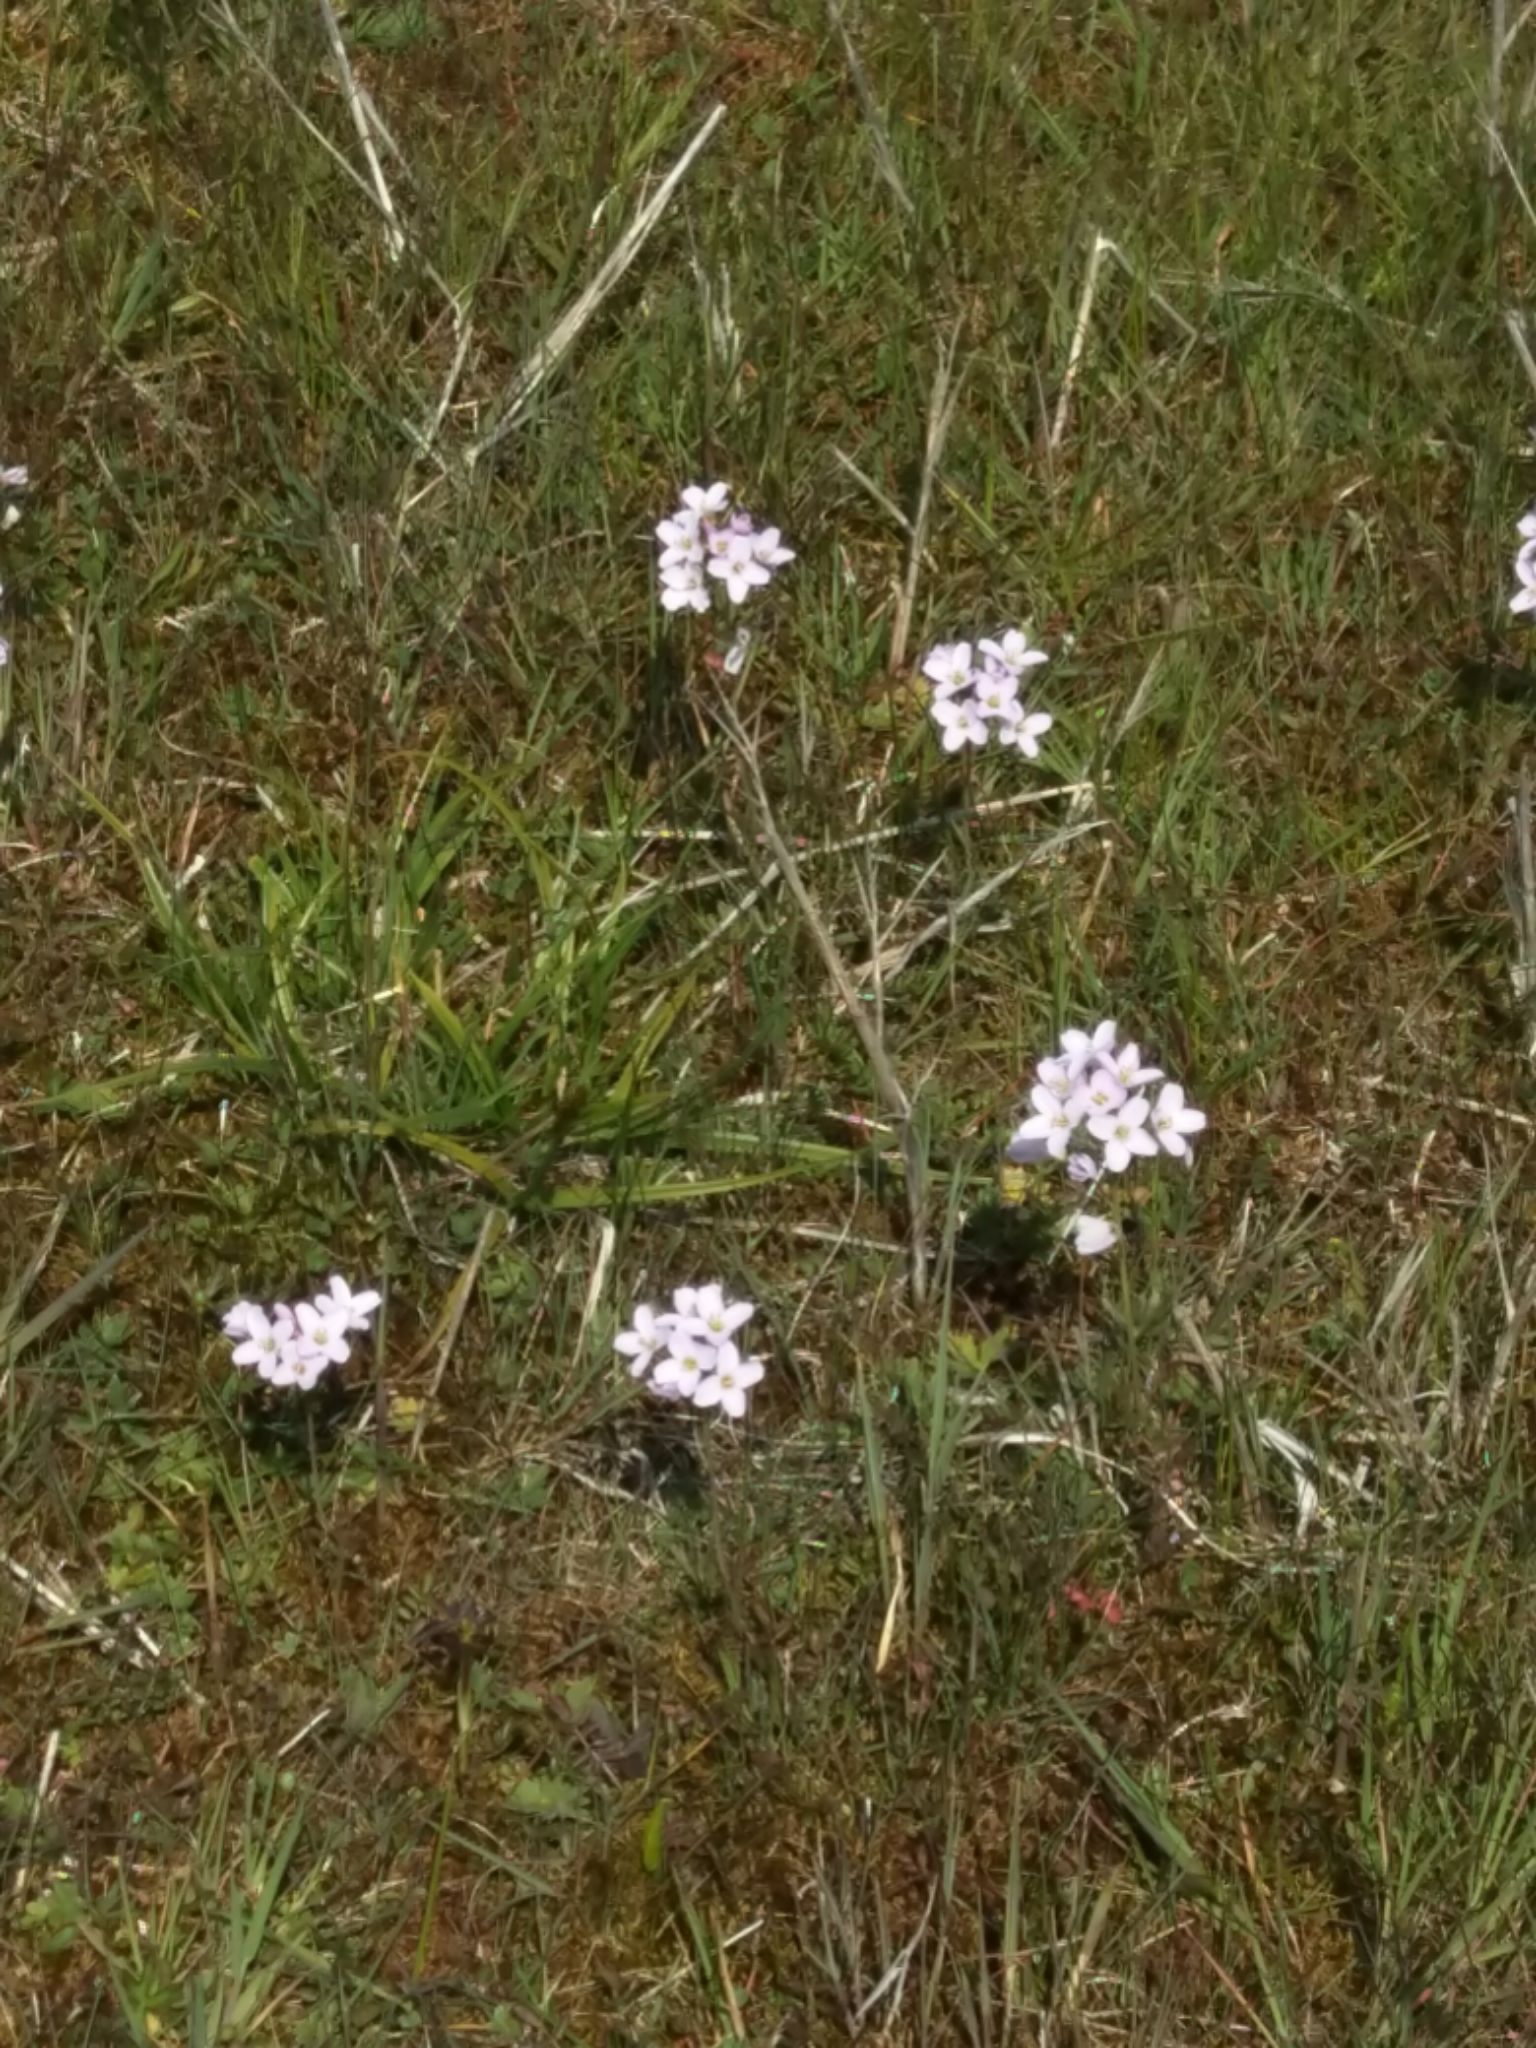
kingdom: Plantae
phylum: Tracheophyta
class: Magnoliopsida
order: Brassicales
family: Brassicaceae
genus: Cardamine
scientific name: Cardamine pratensis
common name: Cuckoo flower
